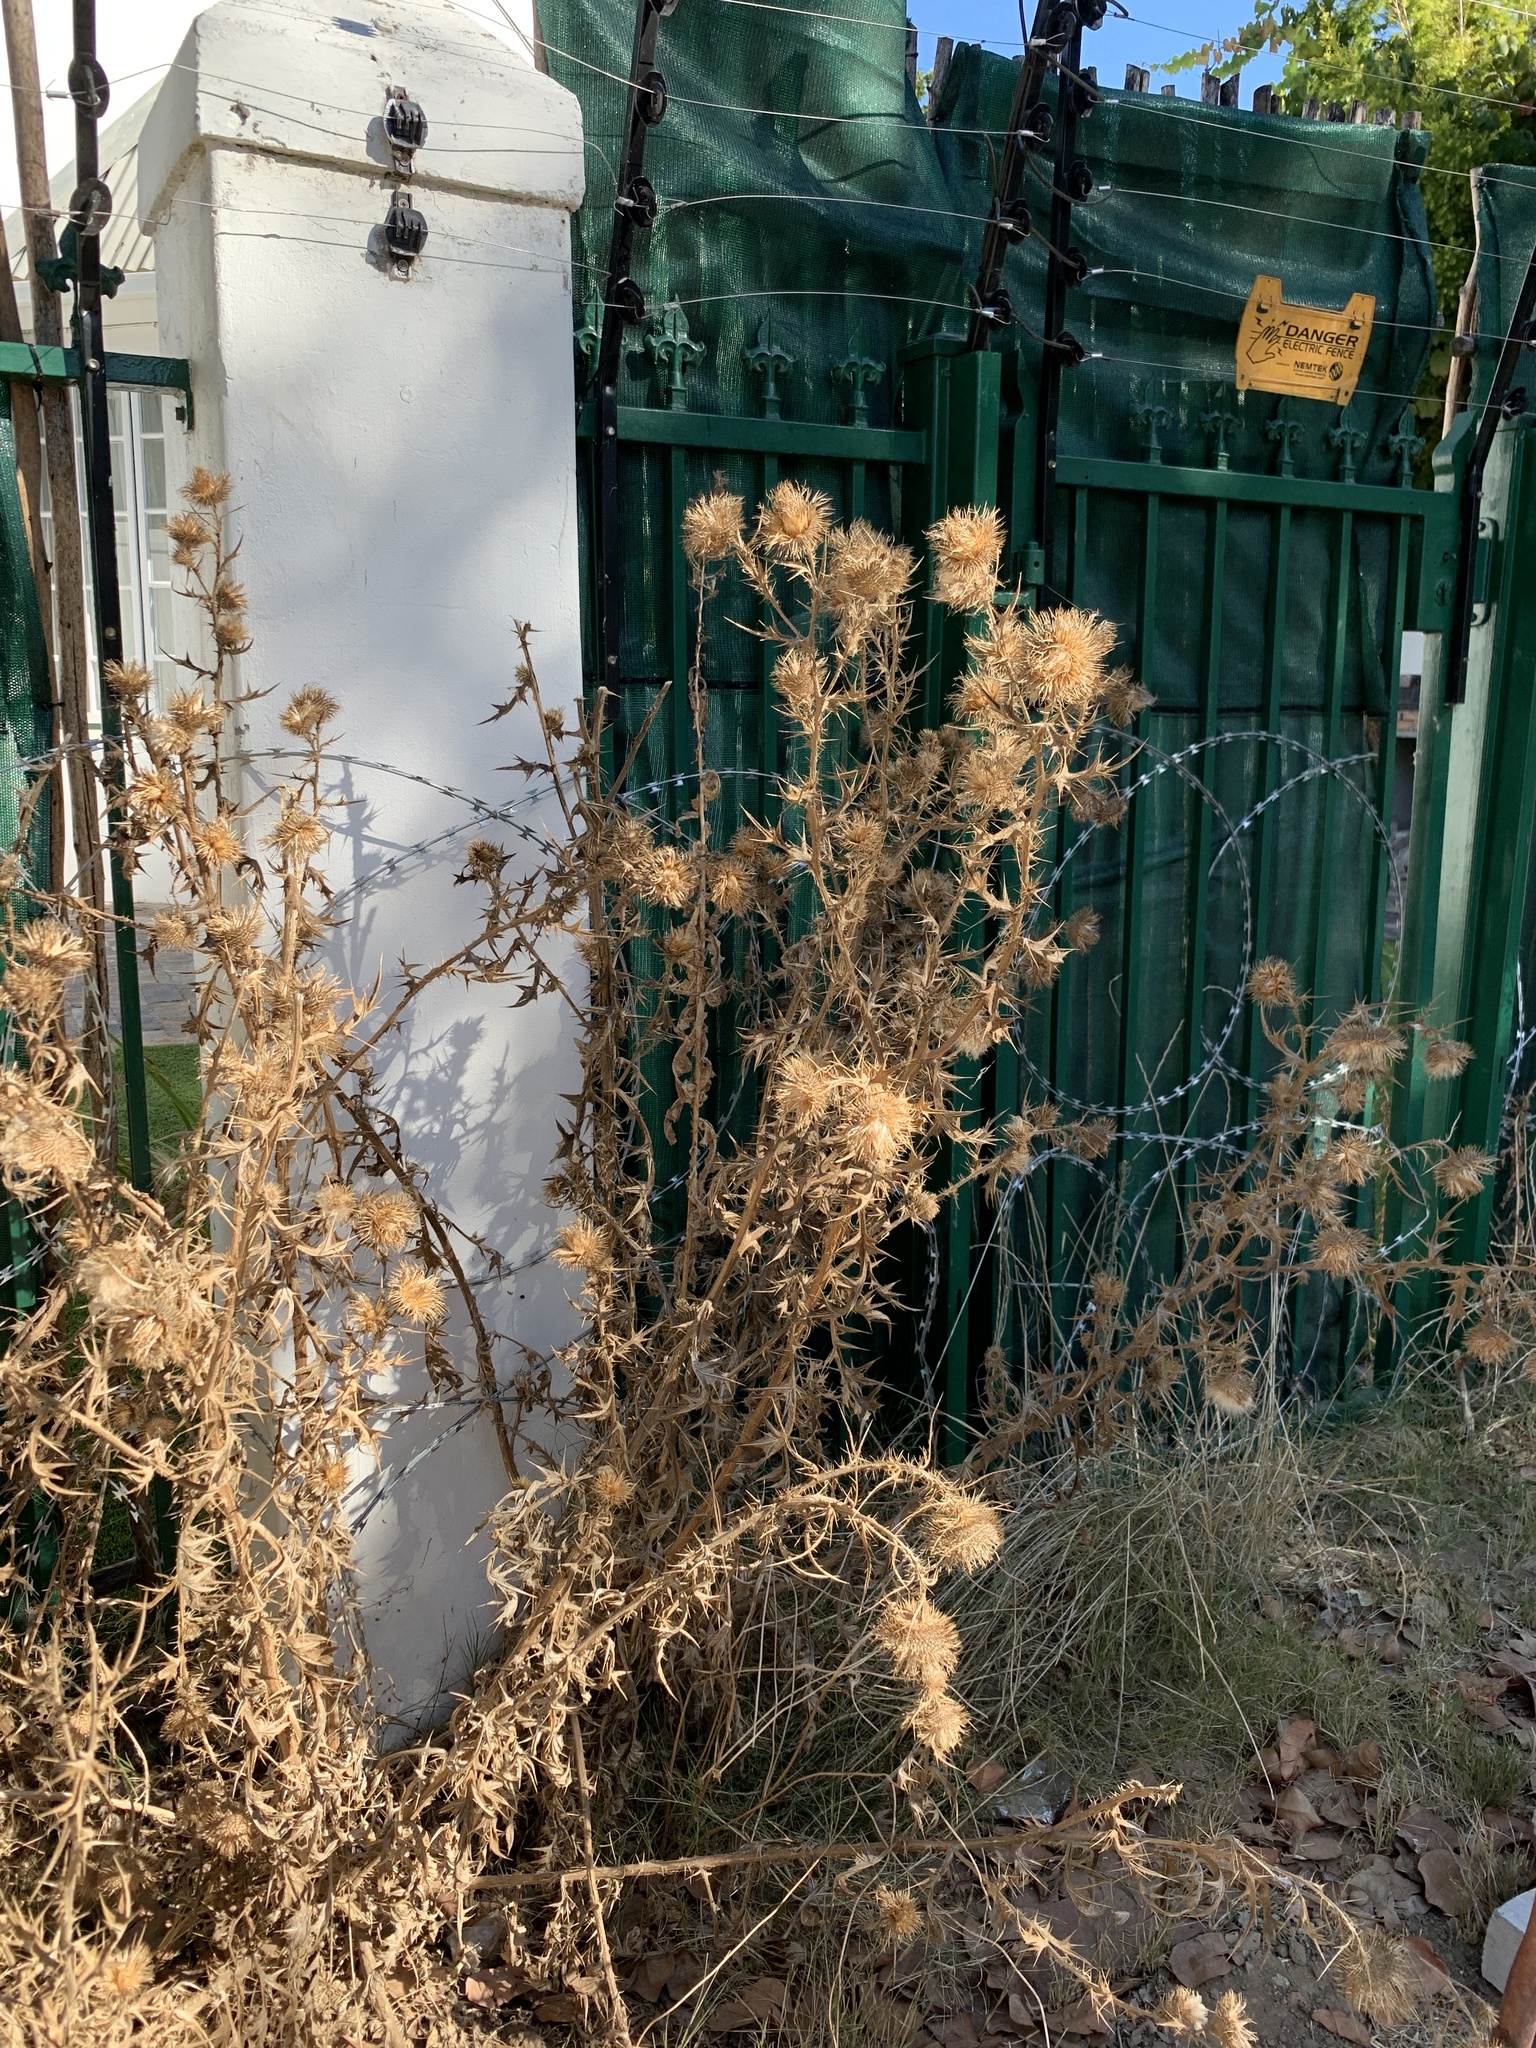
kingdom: Plantae
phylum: Tracheophyta
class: Magnoliopsida
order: Asterales
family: Asteraceae
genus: Cirsium
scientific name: Cirsium vulgare
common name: Bull thistle
